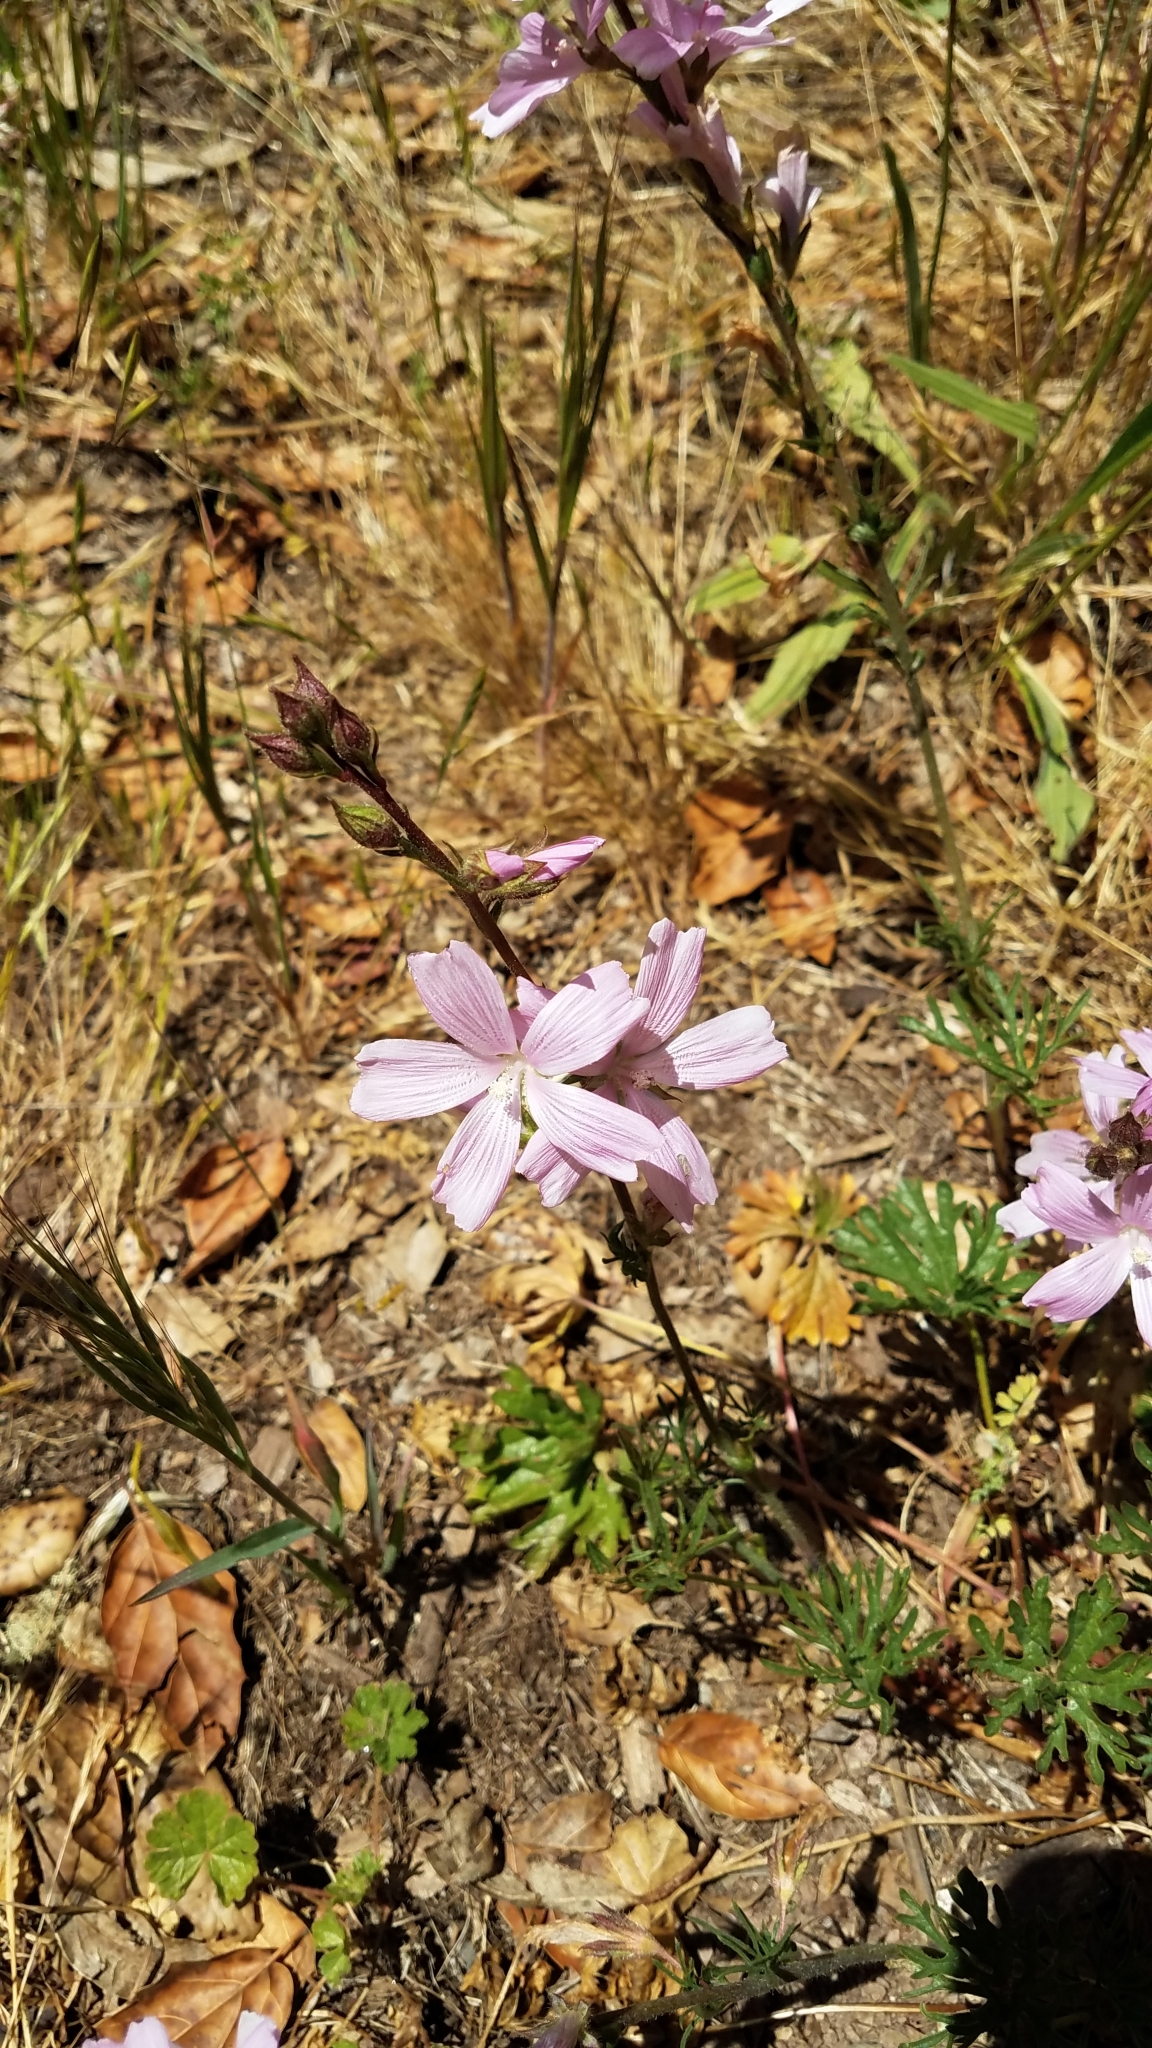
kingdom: Plantae
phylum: Tracheophyta
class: Magnoliopsida
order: Malvales
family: Malvaceae
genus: Sidalcea
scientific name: Sidalcea malviflora
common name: Greek mallow
